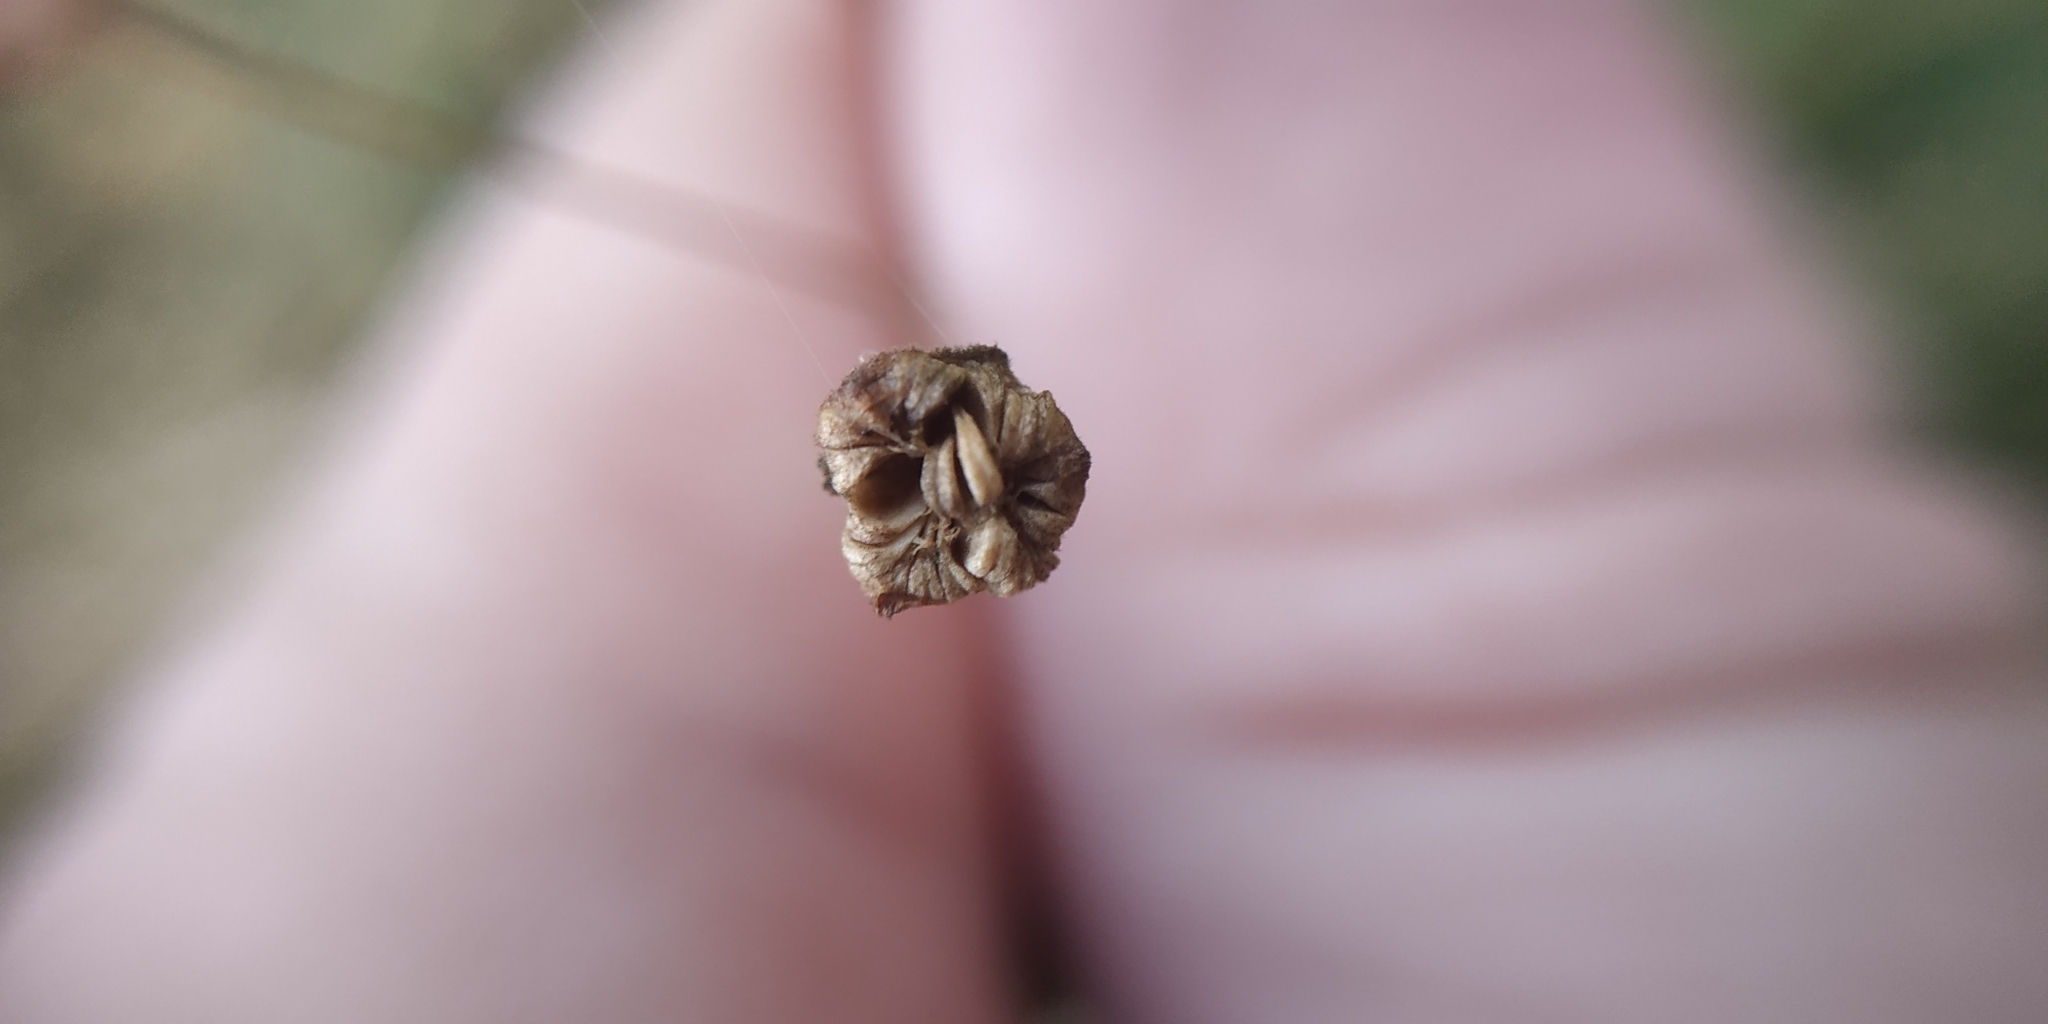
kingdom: Plantae
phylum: Tracheophyta
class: Liliopsida
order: Alismatales
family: Alismataceae
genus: Alisma
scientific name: Alisma plantago-aquatica
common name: Water-plantain
